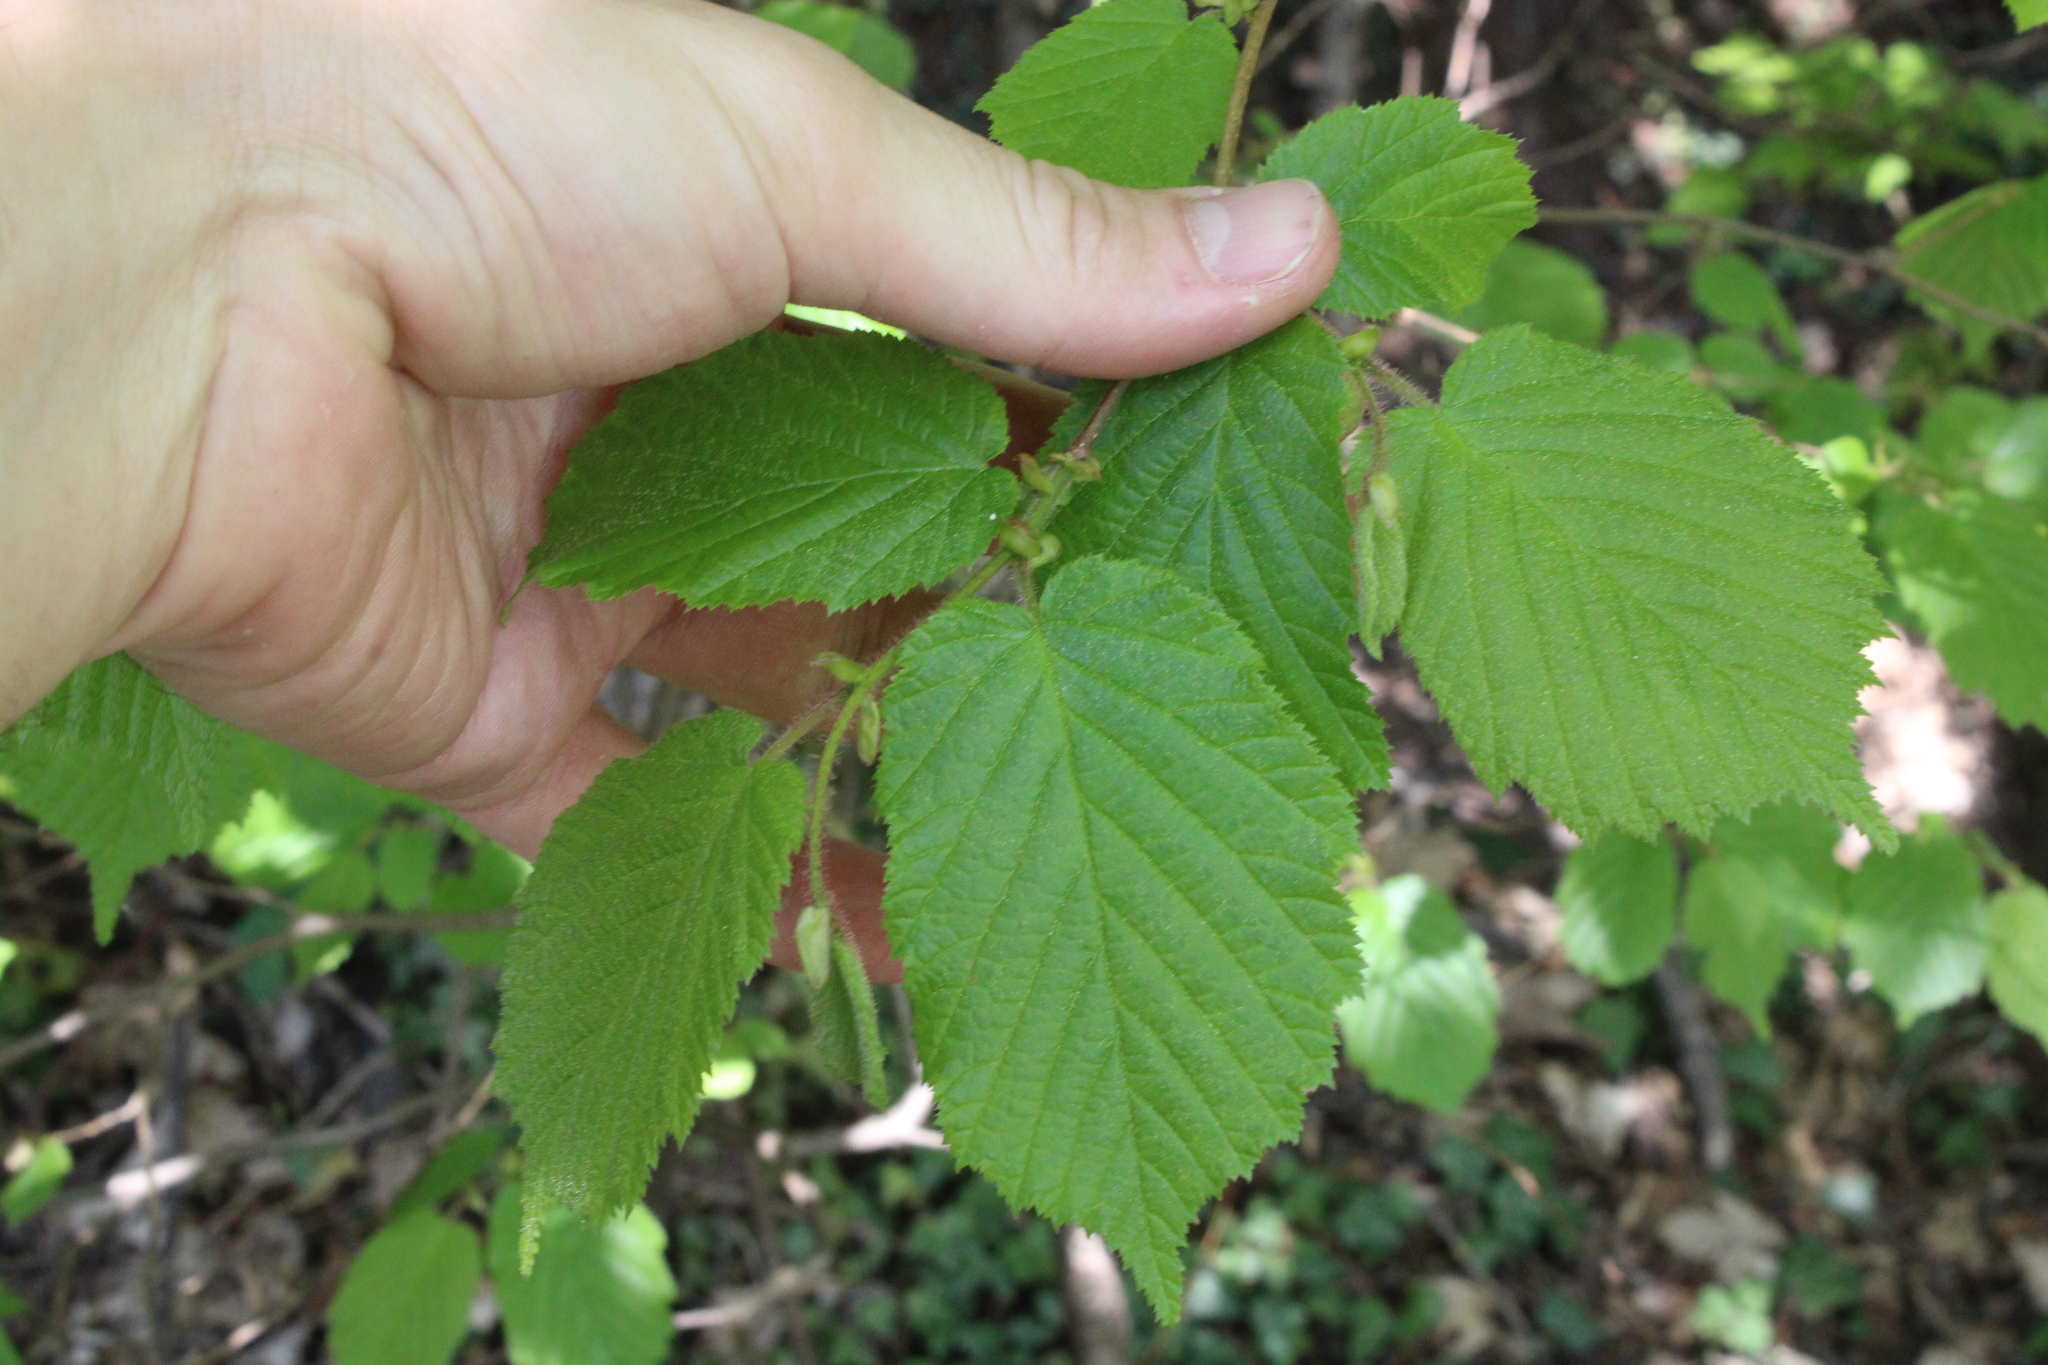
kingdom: Plantae
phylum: Tracheophyta
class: Magnoliopsida
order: Fagales
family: Betulaceae
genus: Corylus
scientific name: Corylus avellana
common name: European hazel
